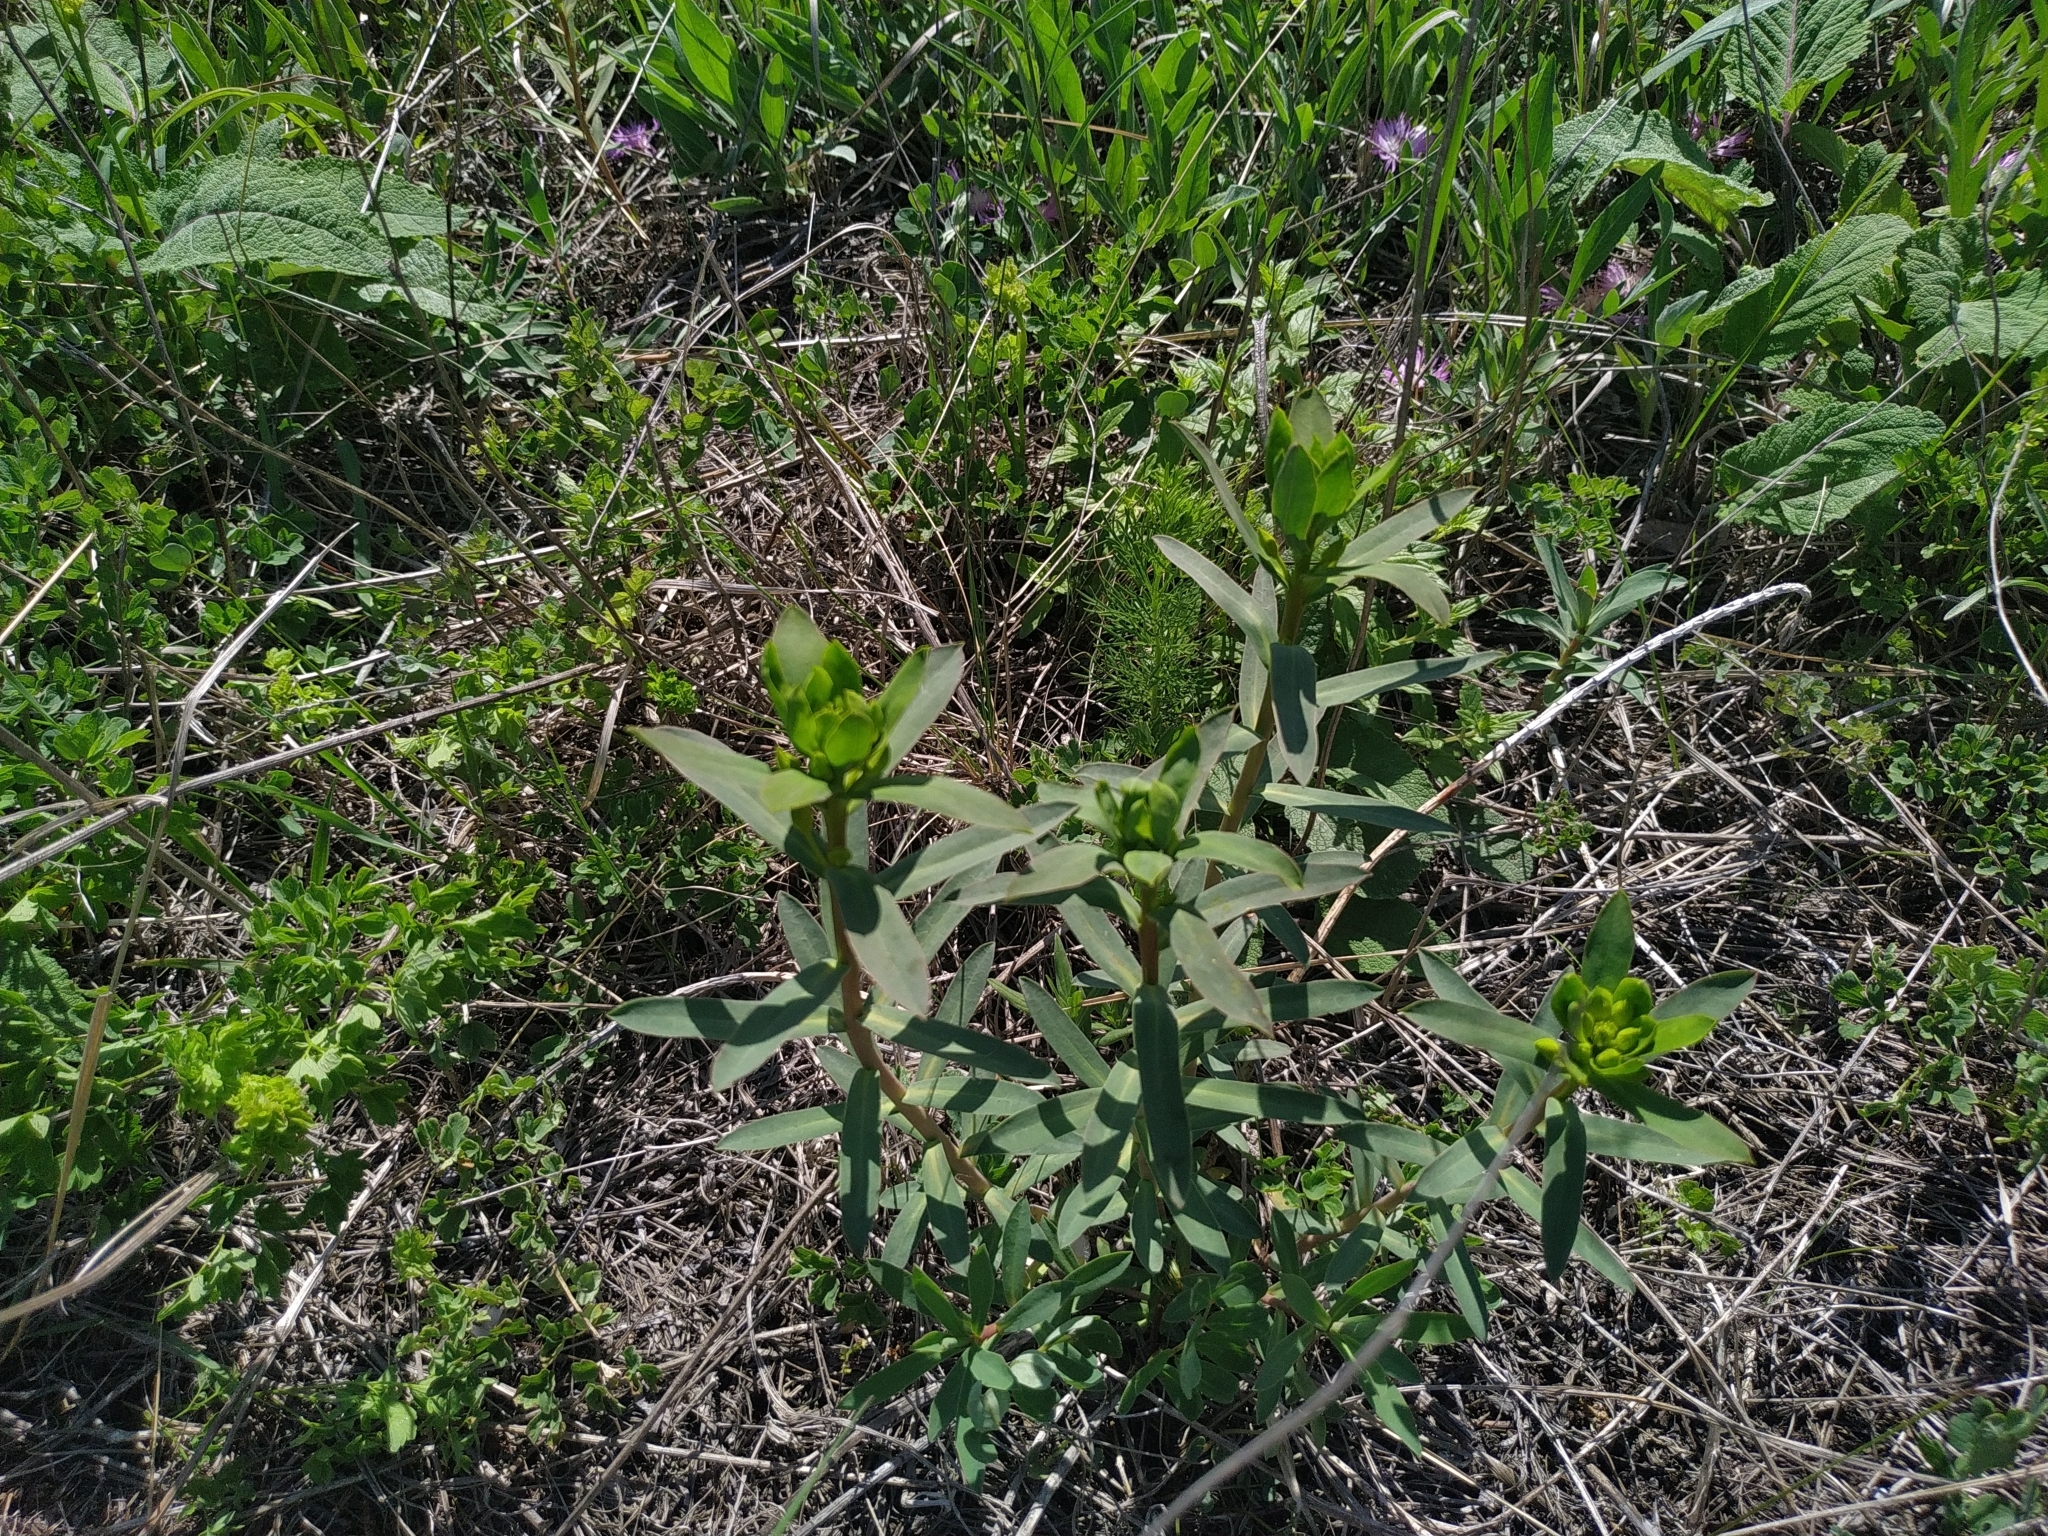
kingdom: Plantae
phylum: Tracheophyta
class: Magnoliopsida
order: Malpighiales
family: Euphorbiaceae
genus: Euphorbia
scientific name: Euphorbia stepposa
